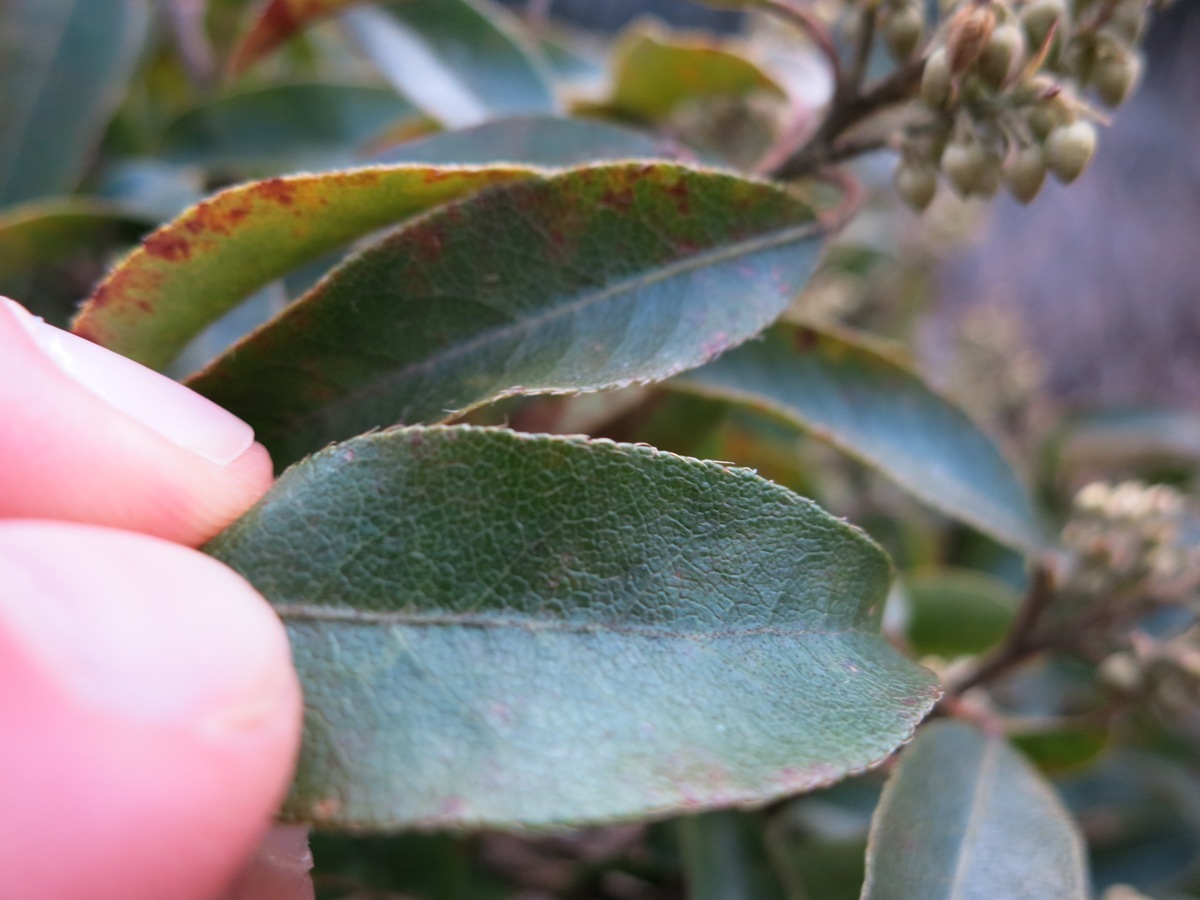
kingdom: Plantae
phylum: Tracheophyta
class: Magnoliopsida
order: Ericales
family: Ericaceae
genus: Pieris
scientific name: Pieris floribunda
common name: Flutterbush
